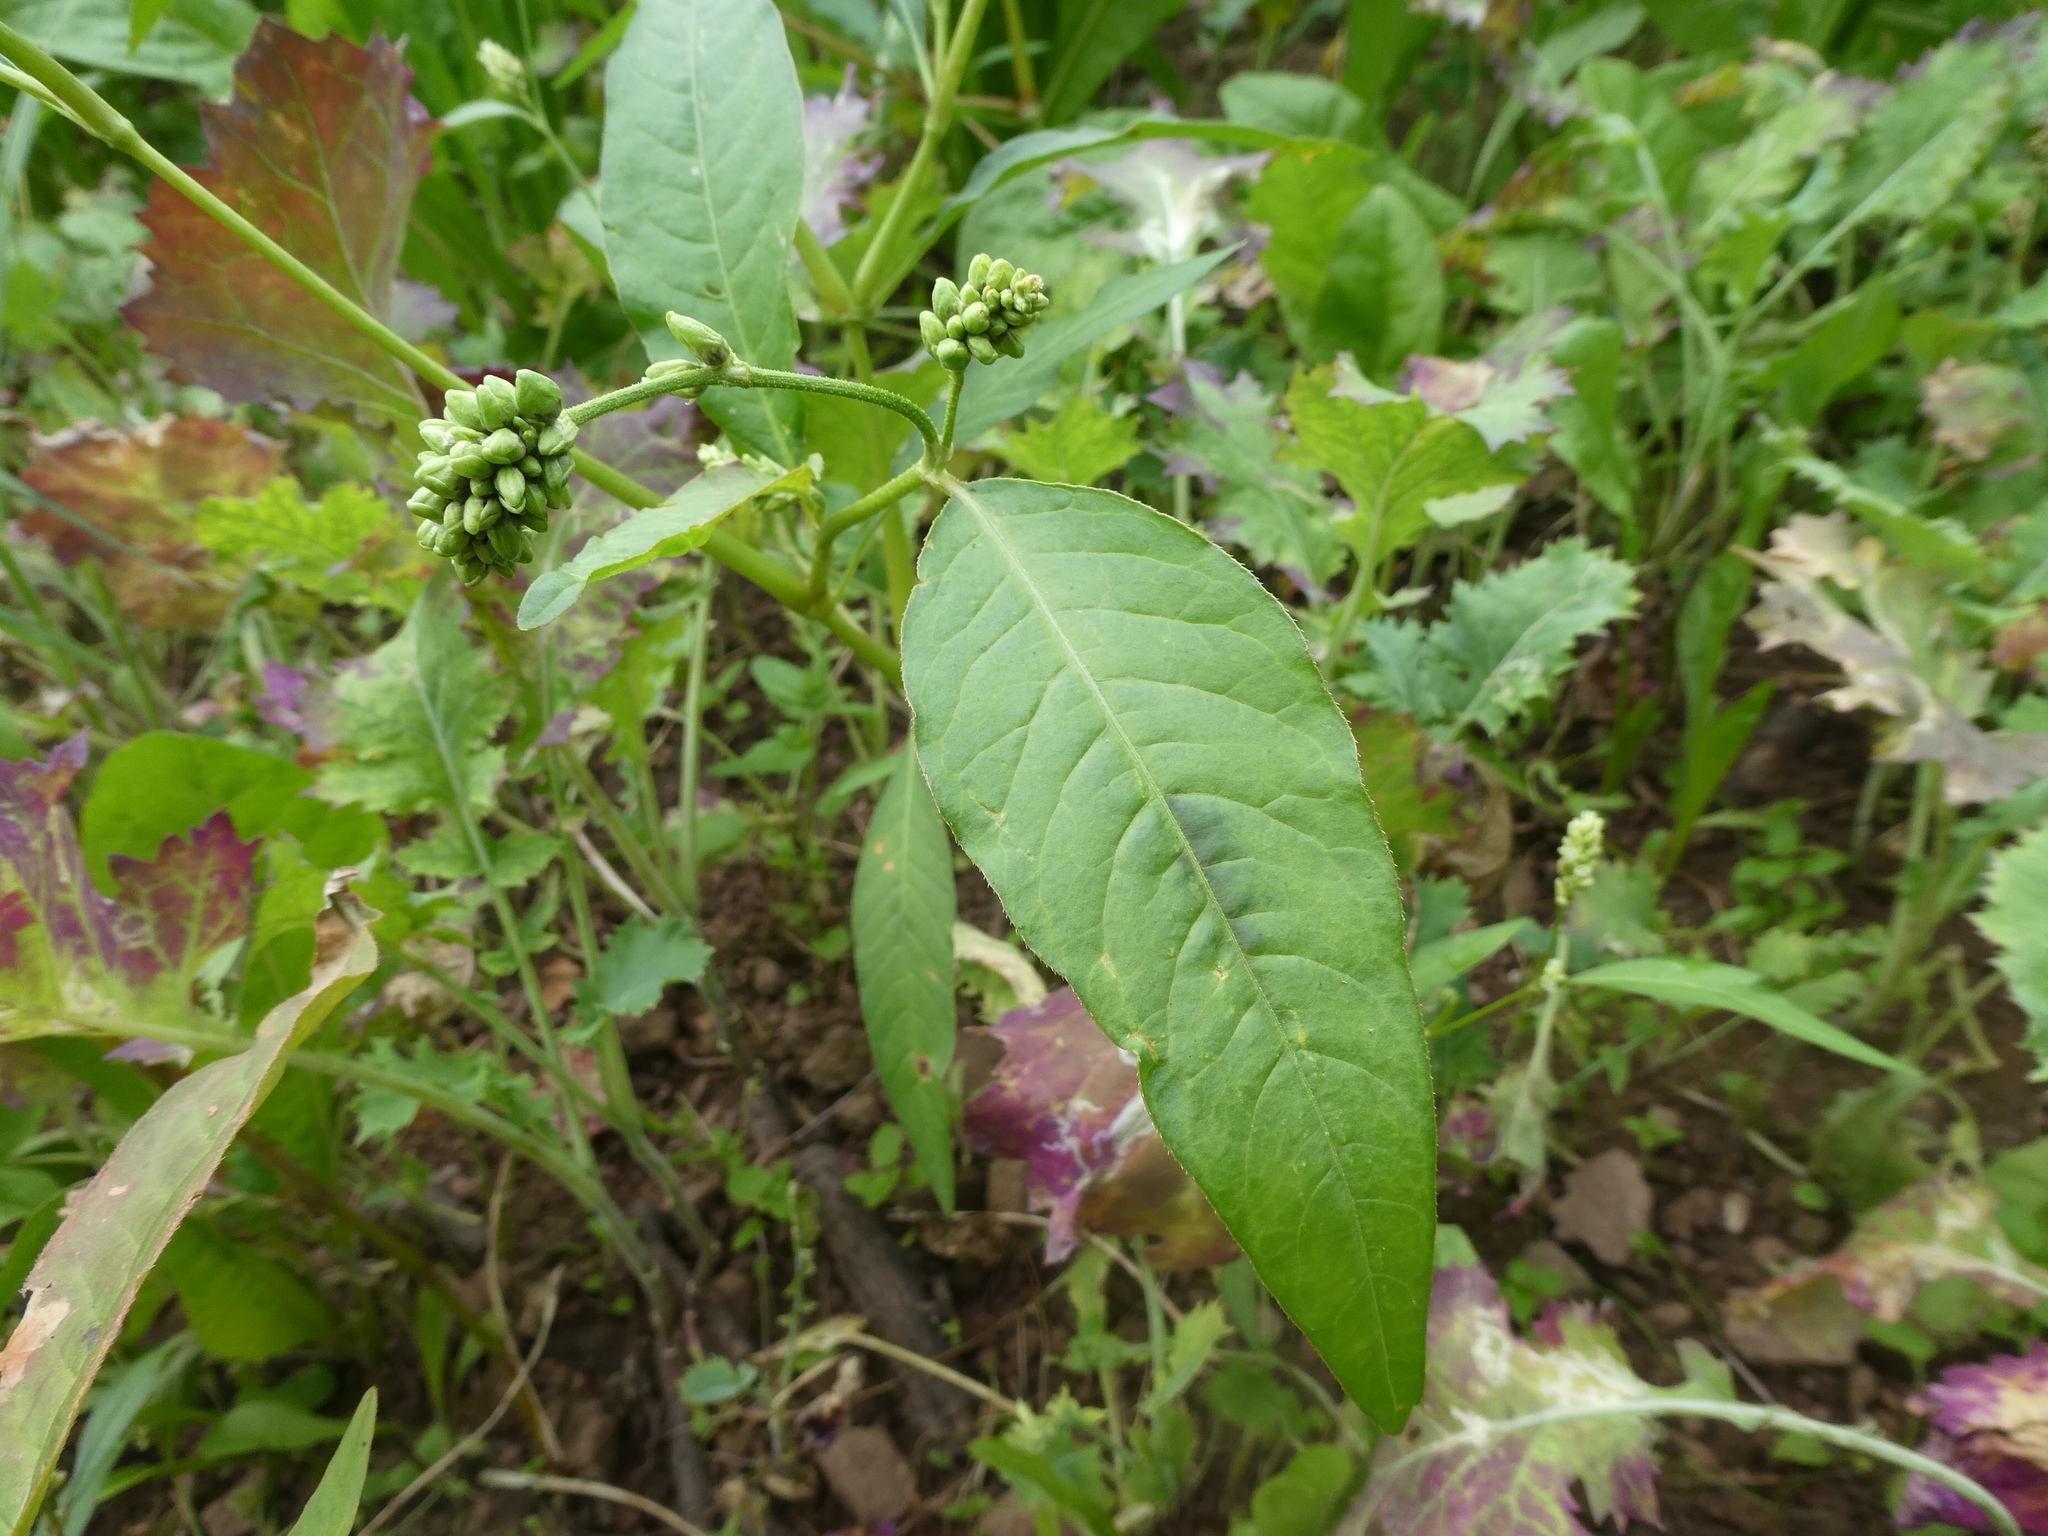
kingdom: Plantae
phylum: Tracheophyta
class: Magnoliopsida
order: Caryophyllales
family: Polygonaceae
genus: Persicaria
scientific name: Persicaria lapathifolia
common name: Curlytop knotweed
